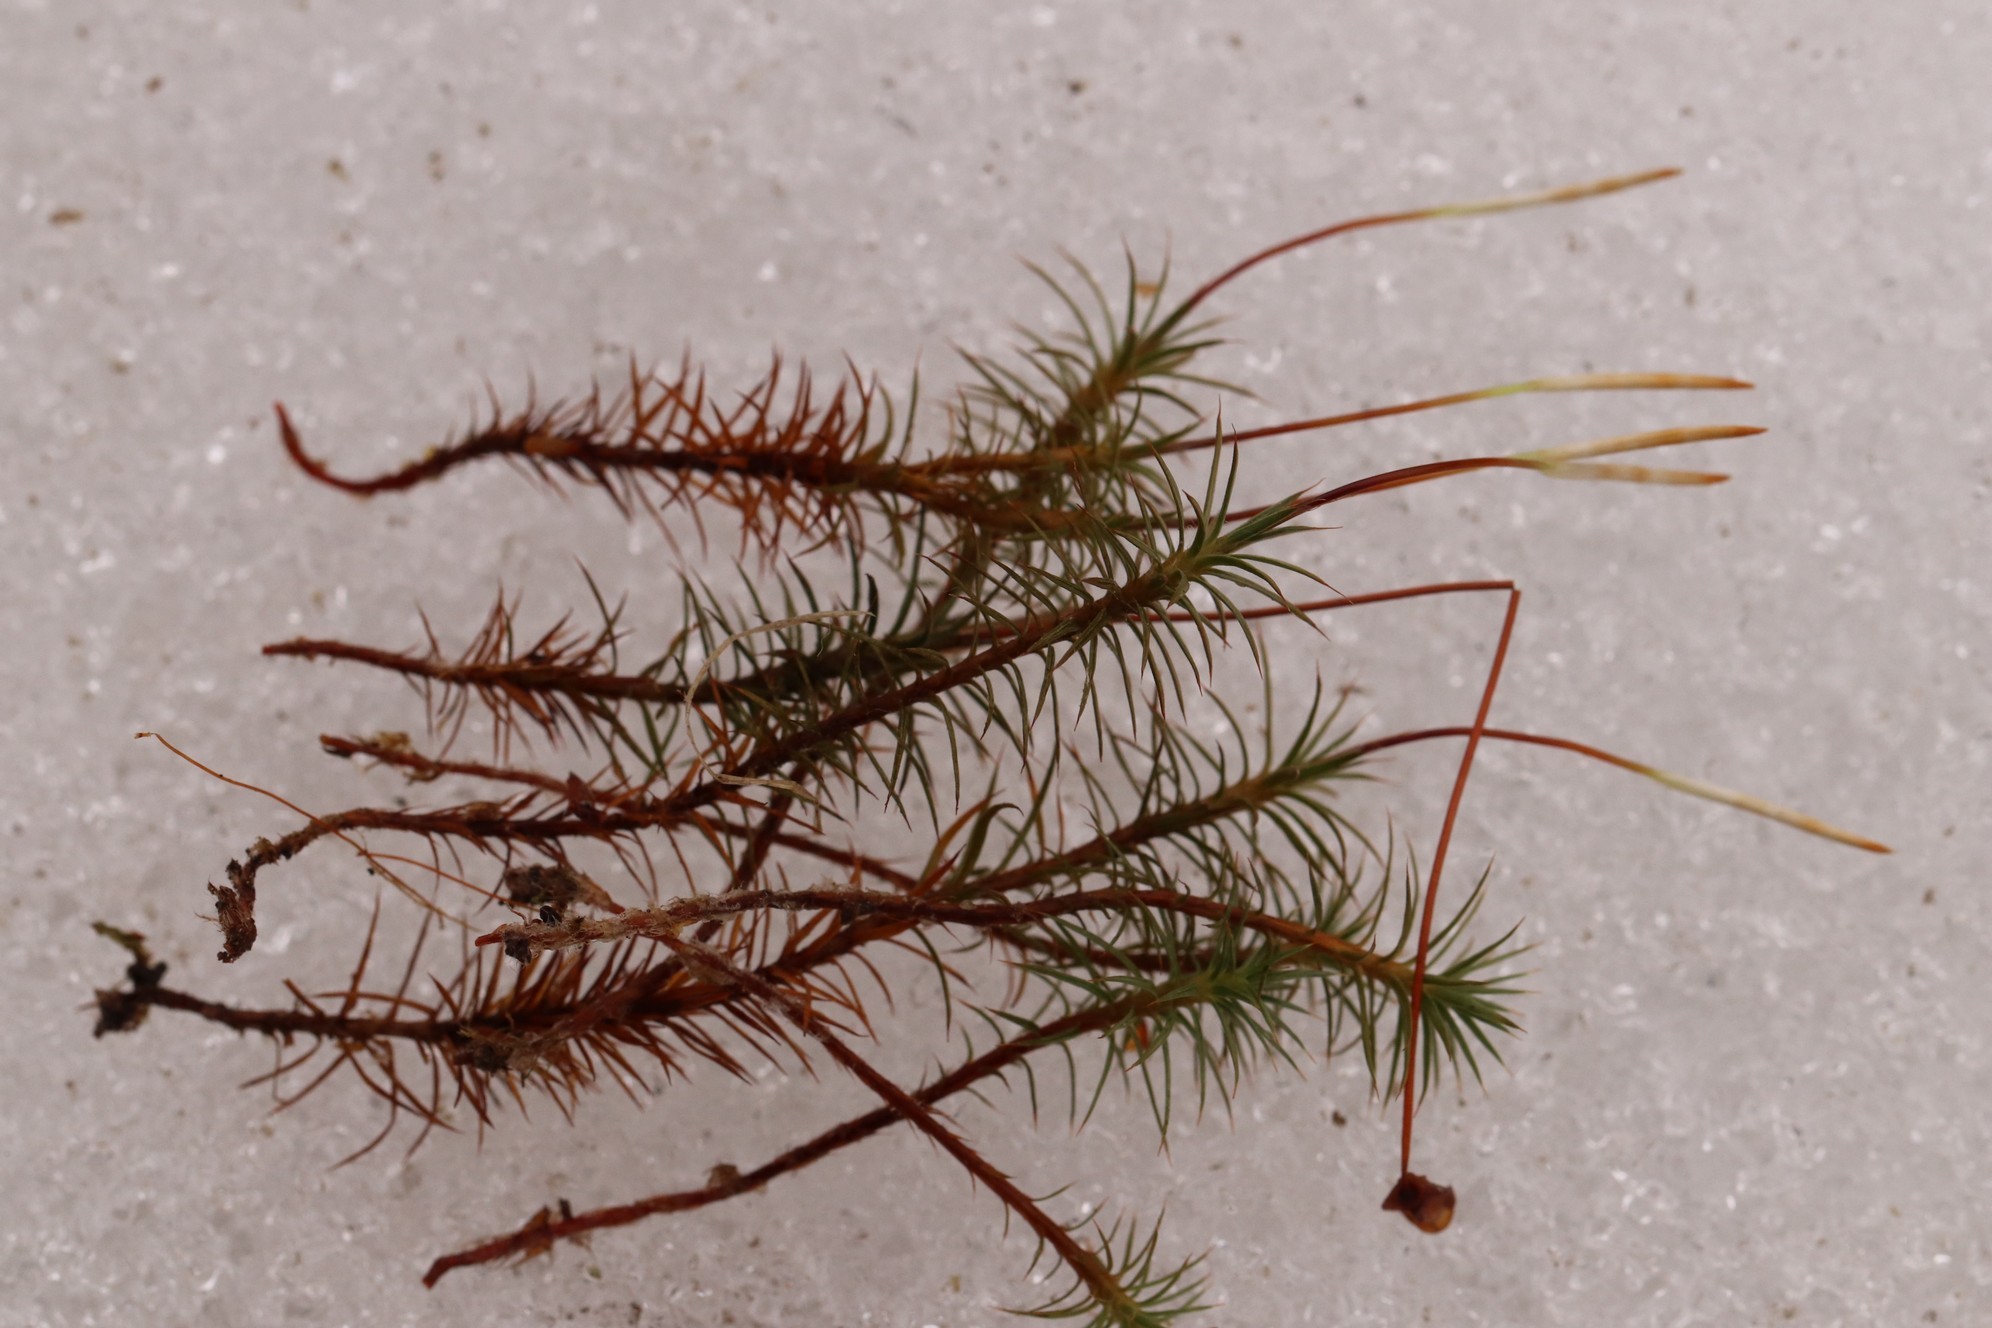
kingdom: Plantae
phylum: Bryophyta
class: Polytrichopsida
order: Polytrichales
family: Polytrichaceae
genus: Polytrichum
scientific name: Polytrichum juniperinum
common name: Juniper haircap moss
